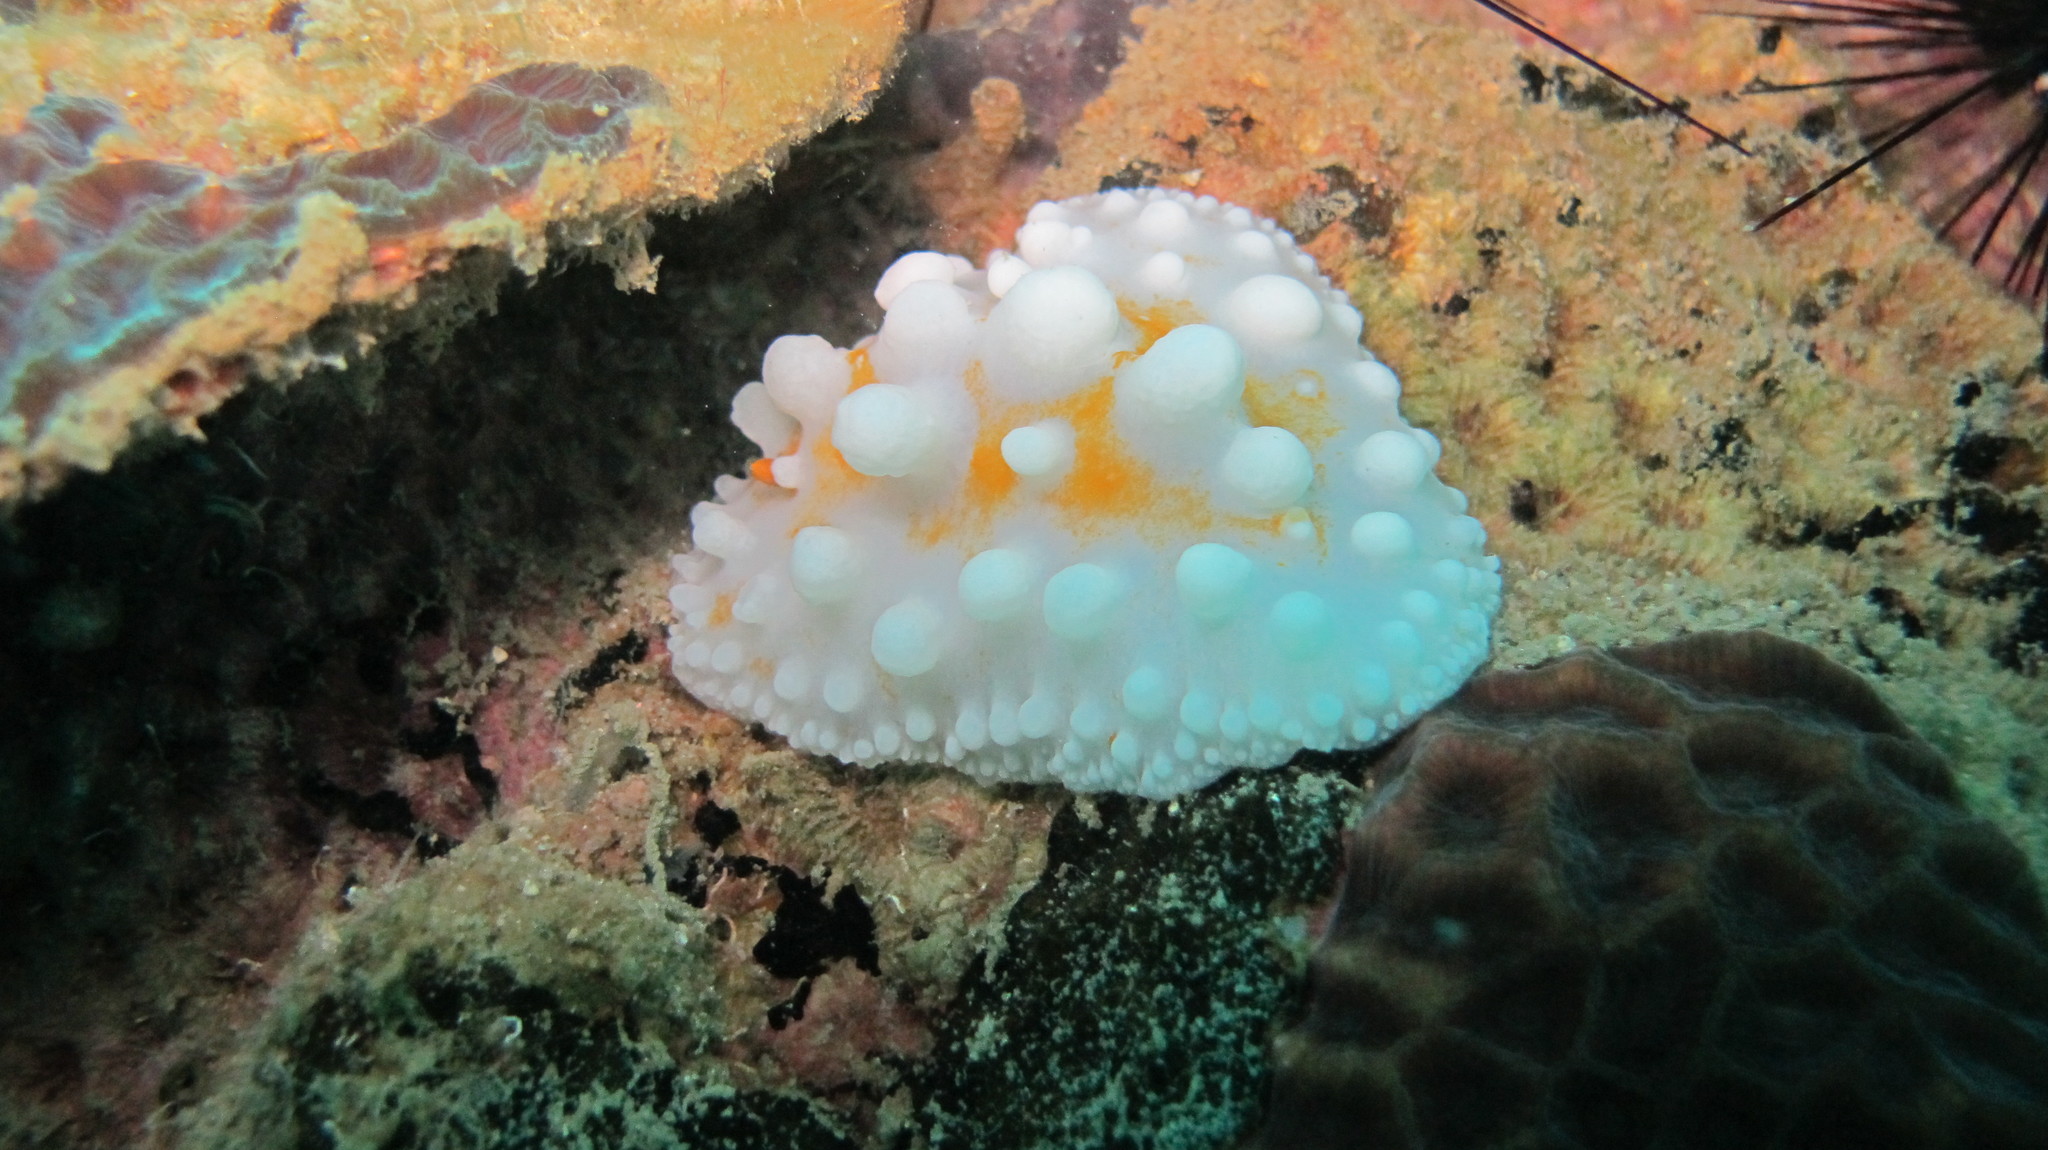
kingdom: Animalia
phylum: Mollusca
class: Gastropoda
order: Nudibranchia
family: Phyllidiidae
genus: Phyllidia
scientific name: Phyllidia ocellata
